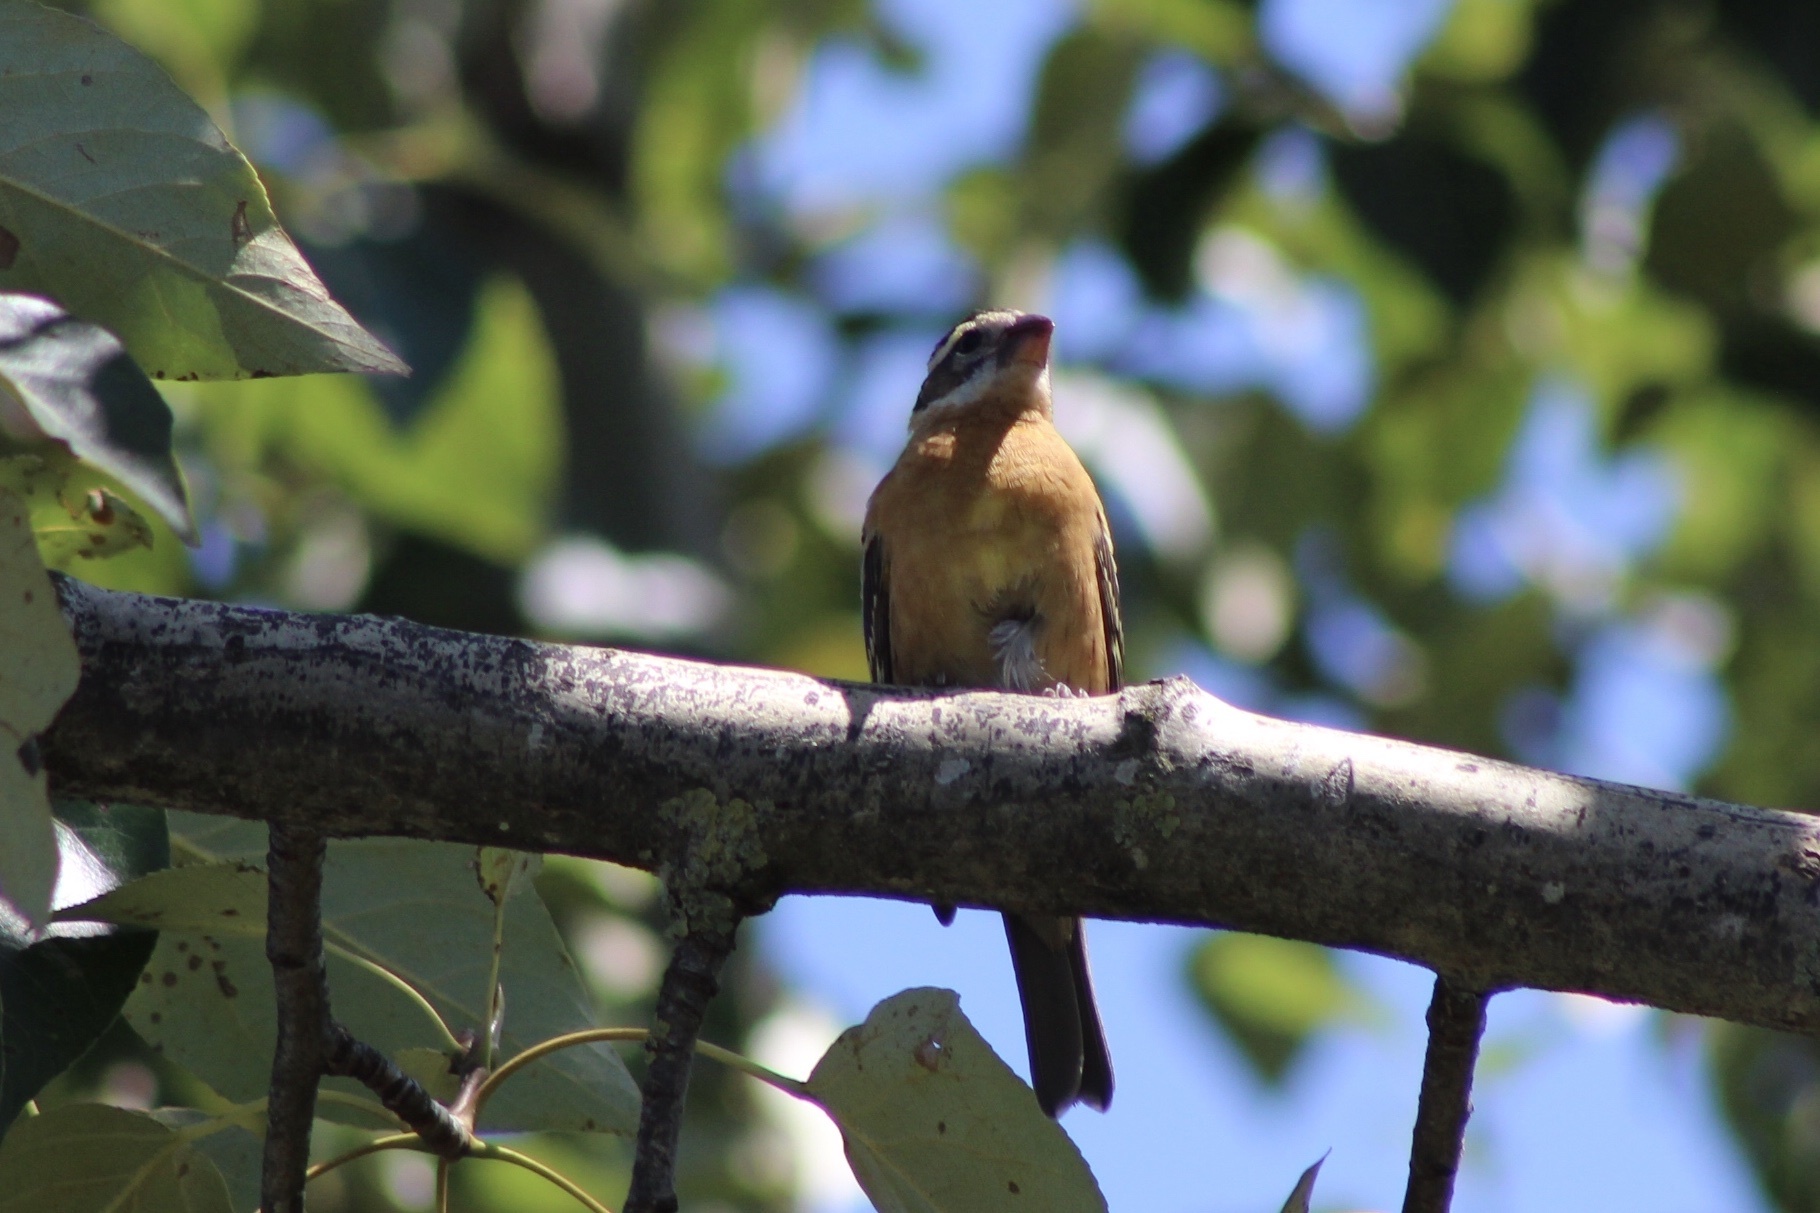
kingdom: Animalia
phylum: Chordata
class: Aves
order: Passeriformes
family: Cardinalidae
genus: Pheucticus
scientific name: Pheucticus melanocephalus
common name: Black-headed grosbeak
